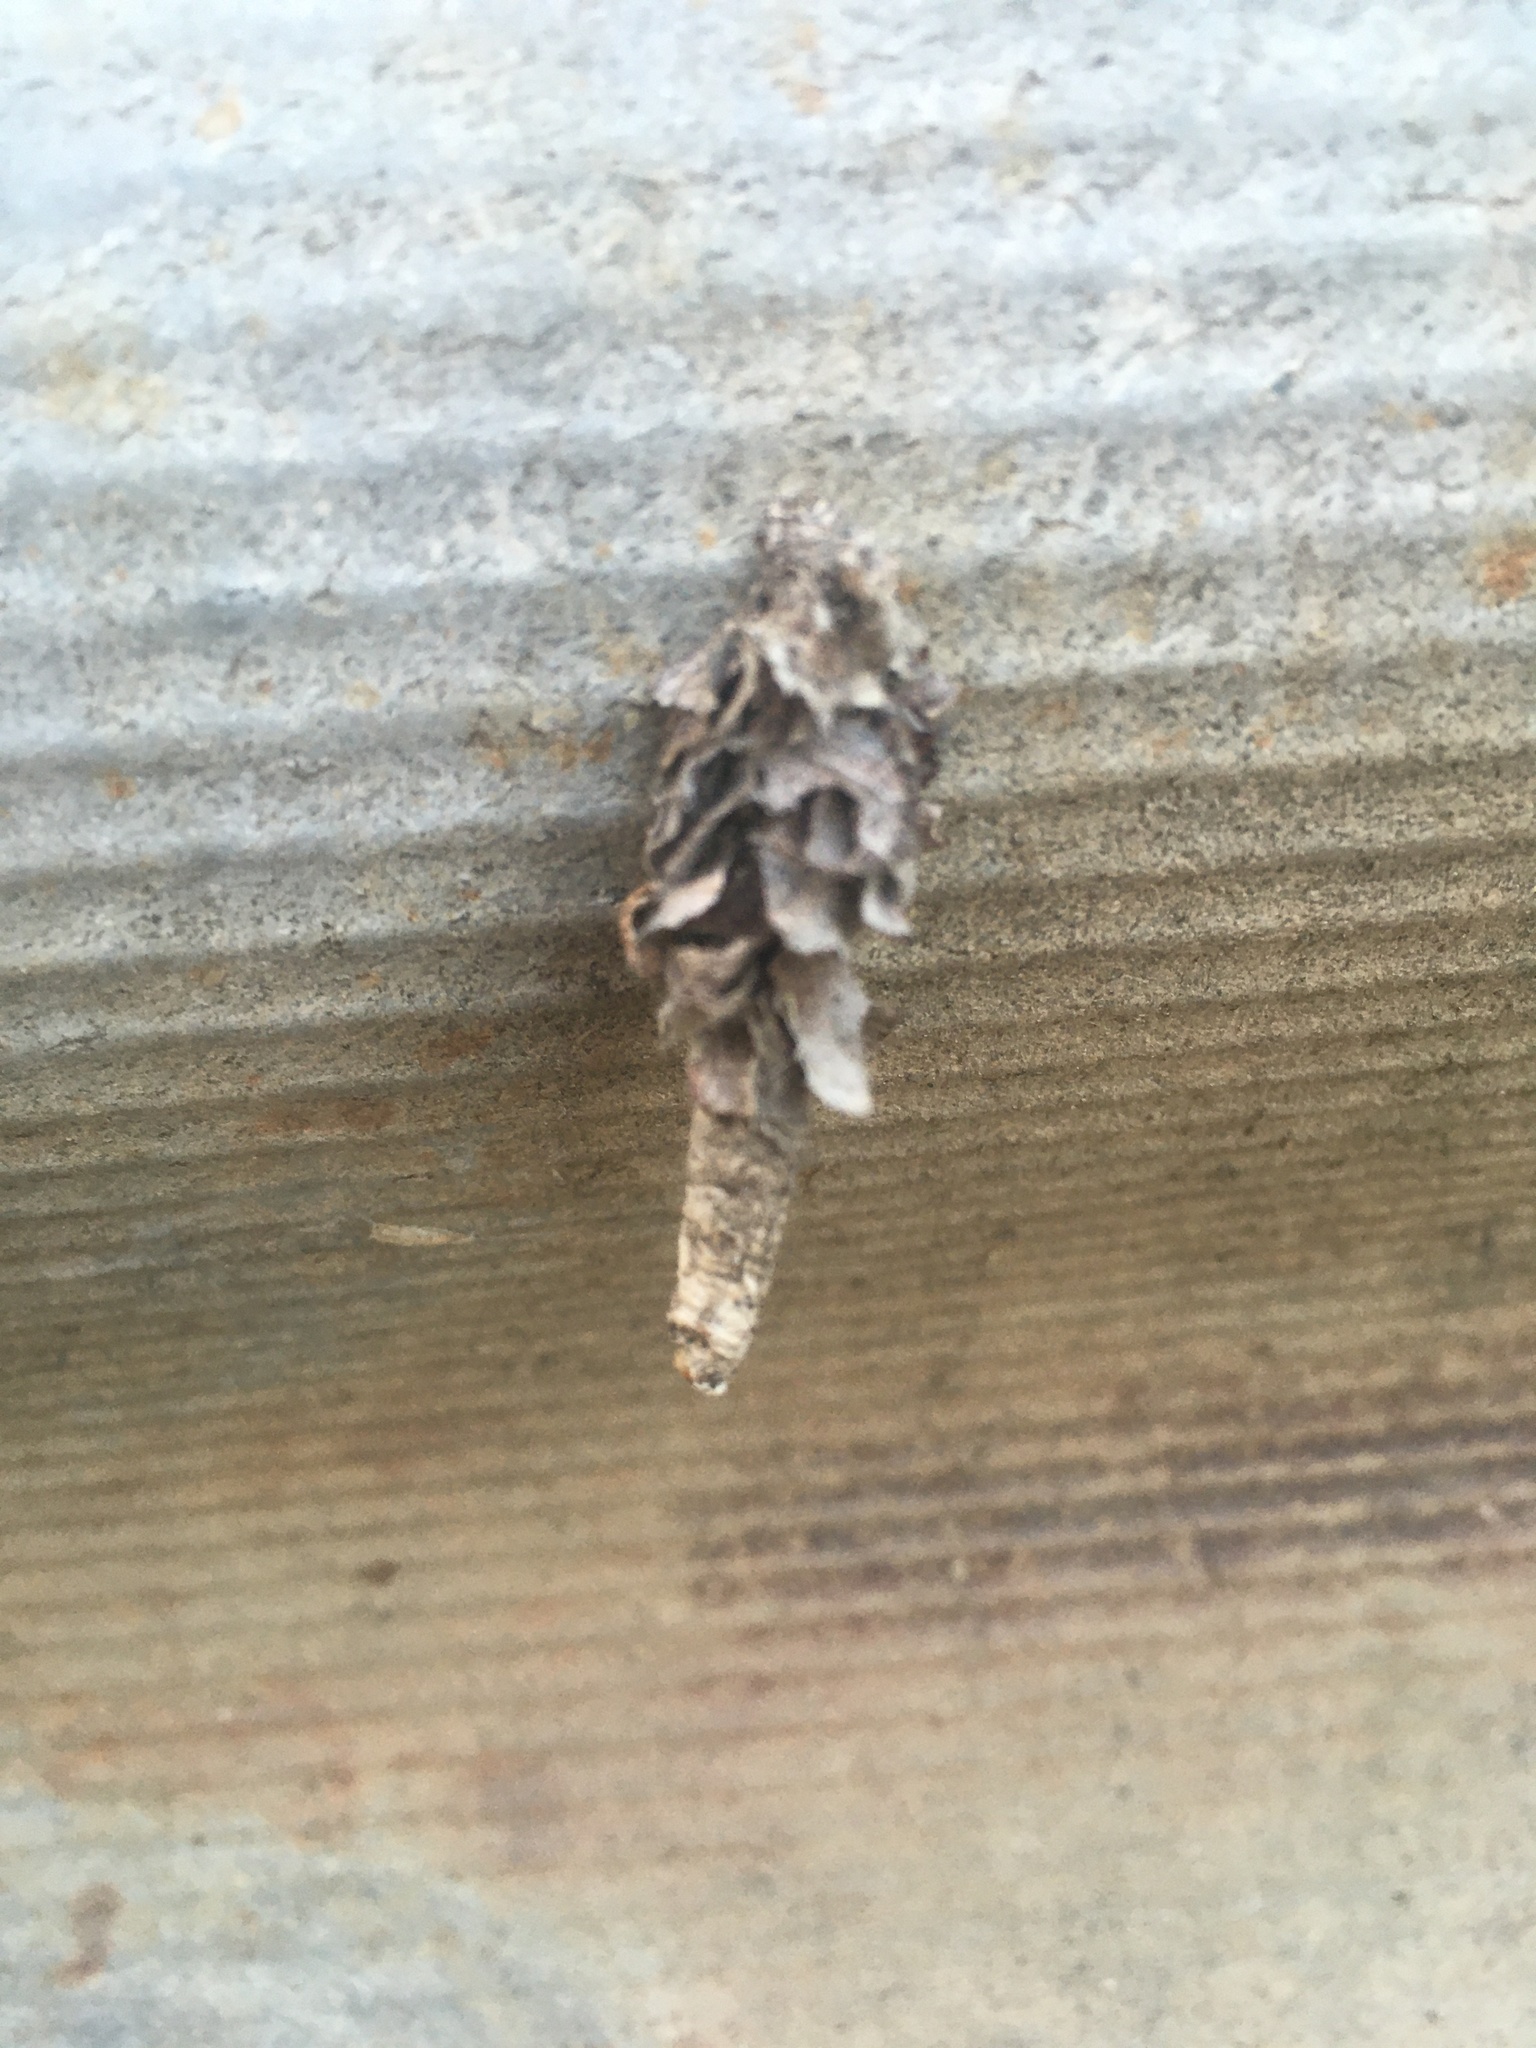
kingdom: Animalia
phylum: Arthropoda
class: Insecta
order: Lepidoptera
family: Psychidae
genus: Canephora
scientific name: Canephora hirsuta
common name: Hairy sweep
